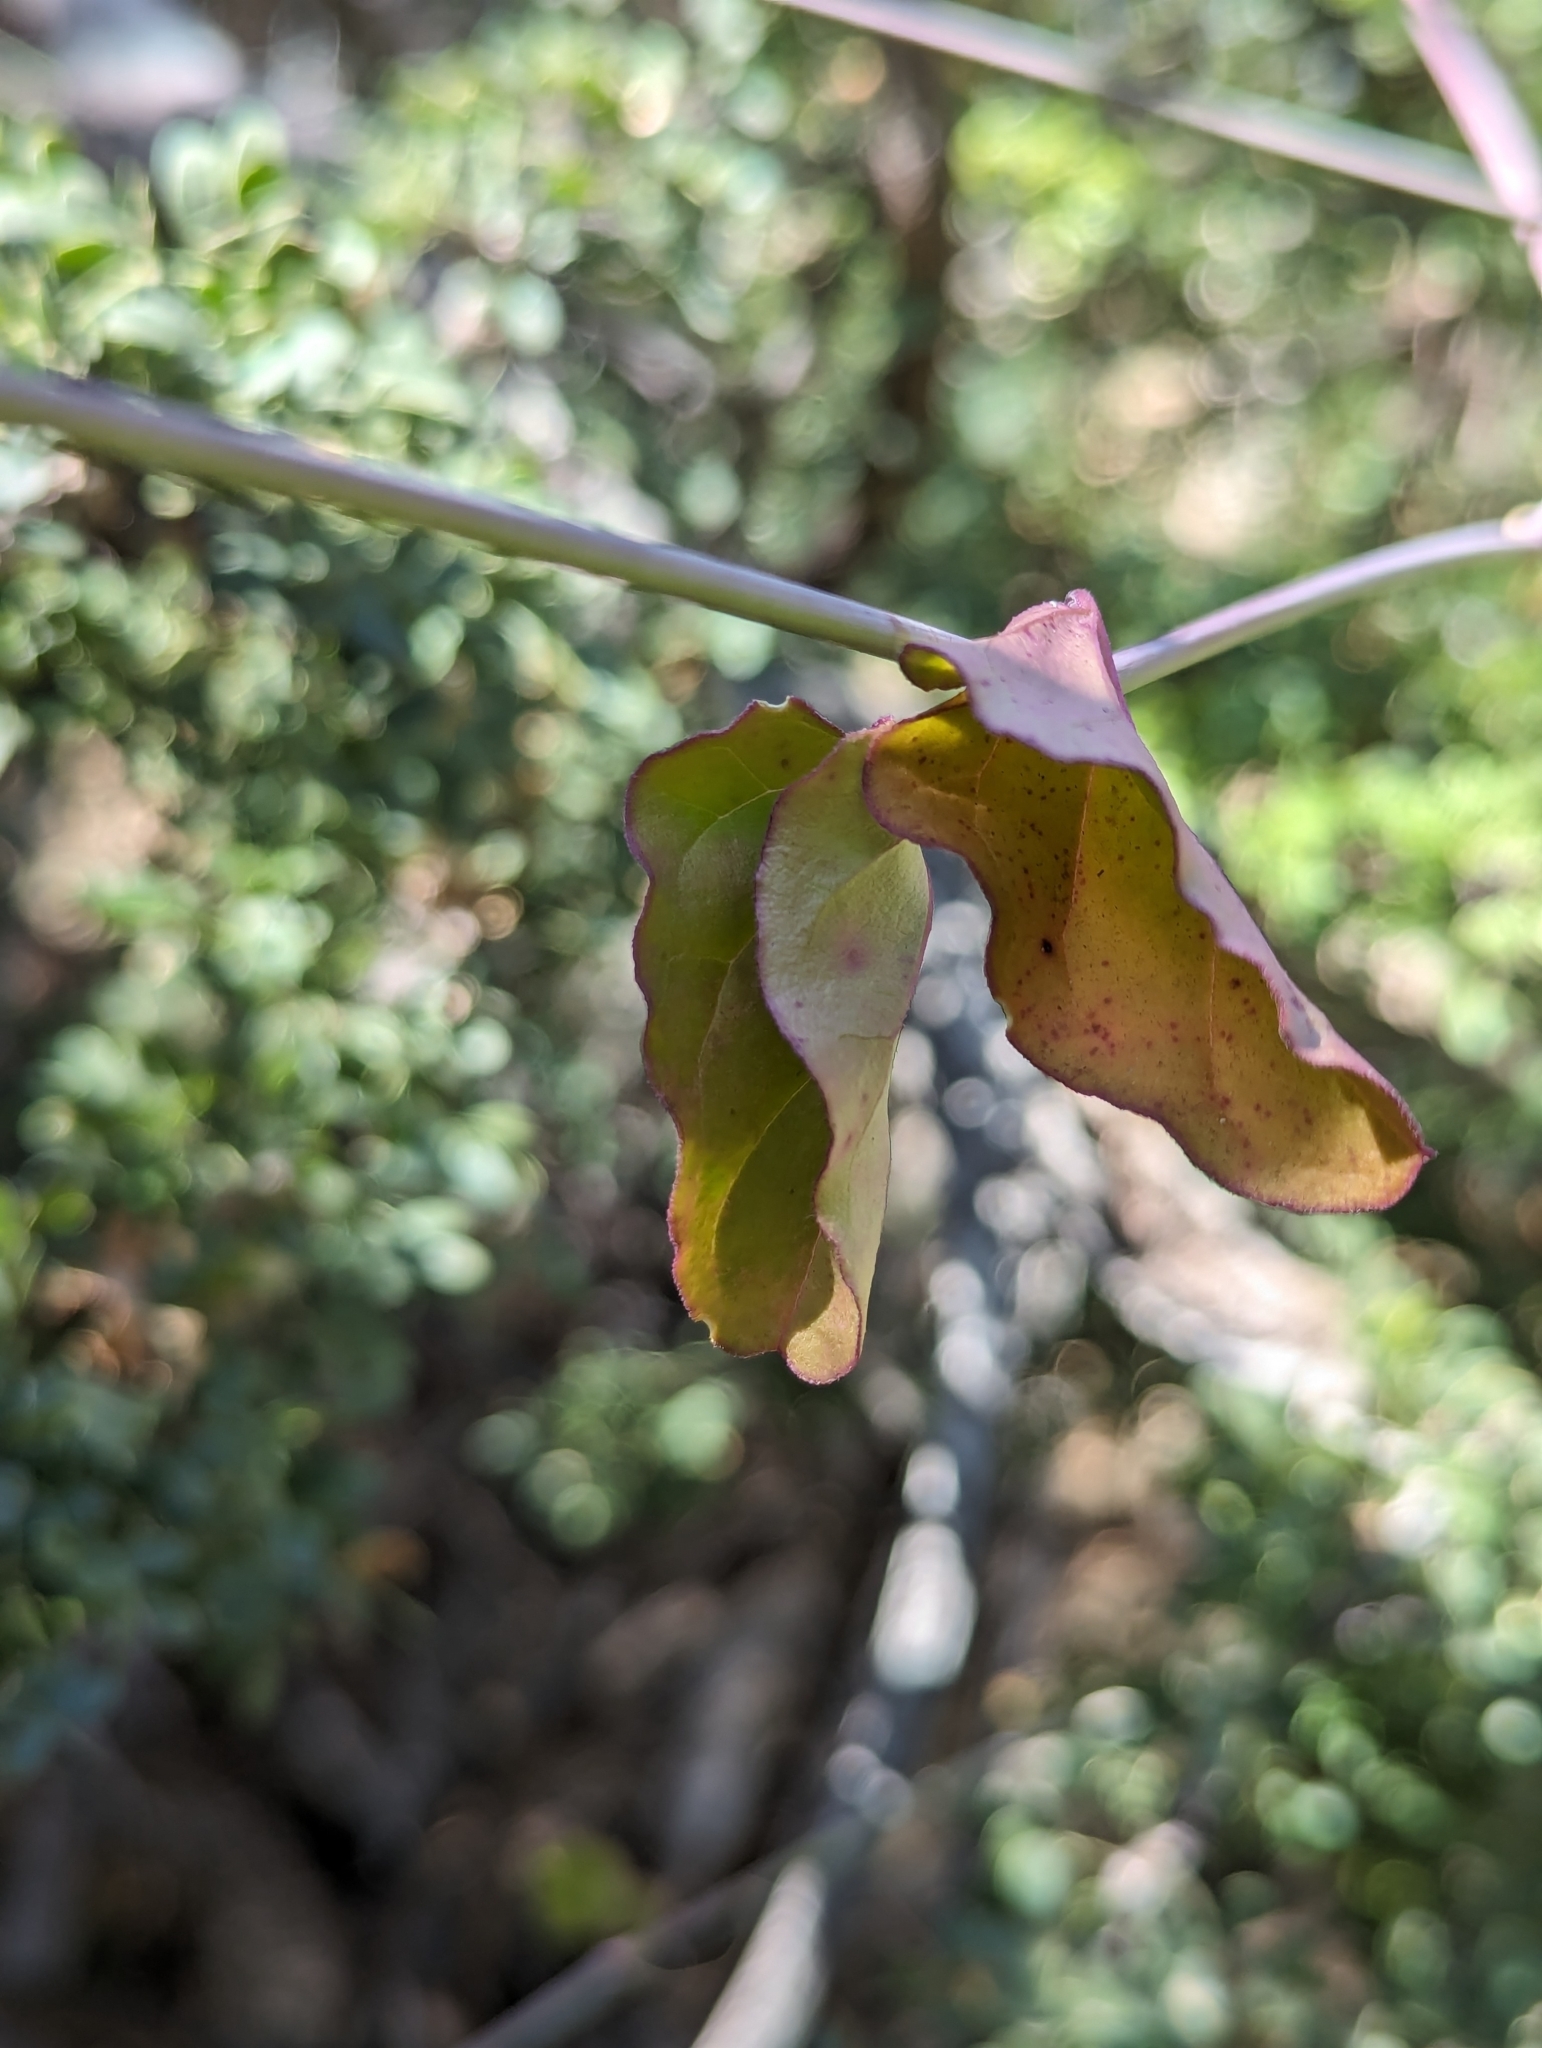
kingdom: Plantae
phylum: Tracheophyta
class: Magnoliopsida
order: Caryophyllales
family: Nyctaginaceae
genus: Commicarpus
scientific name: Commicarpus brandegeei
